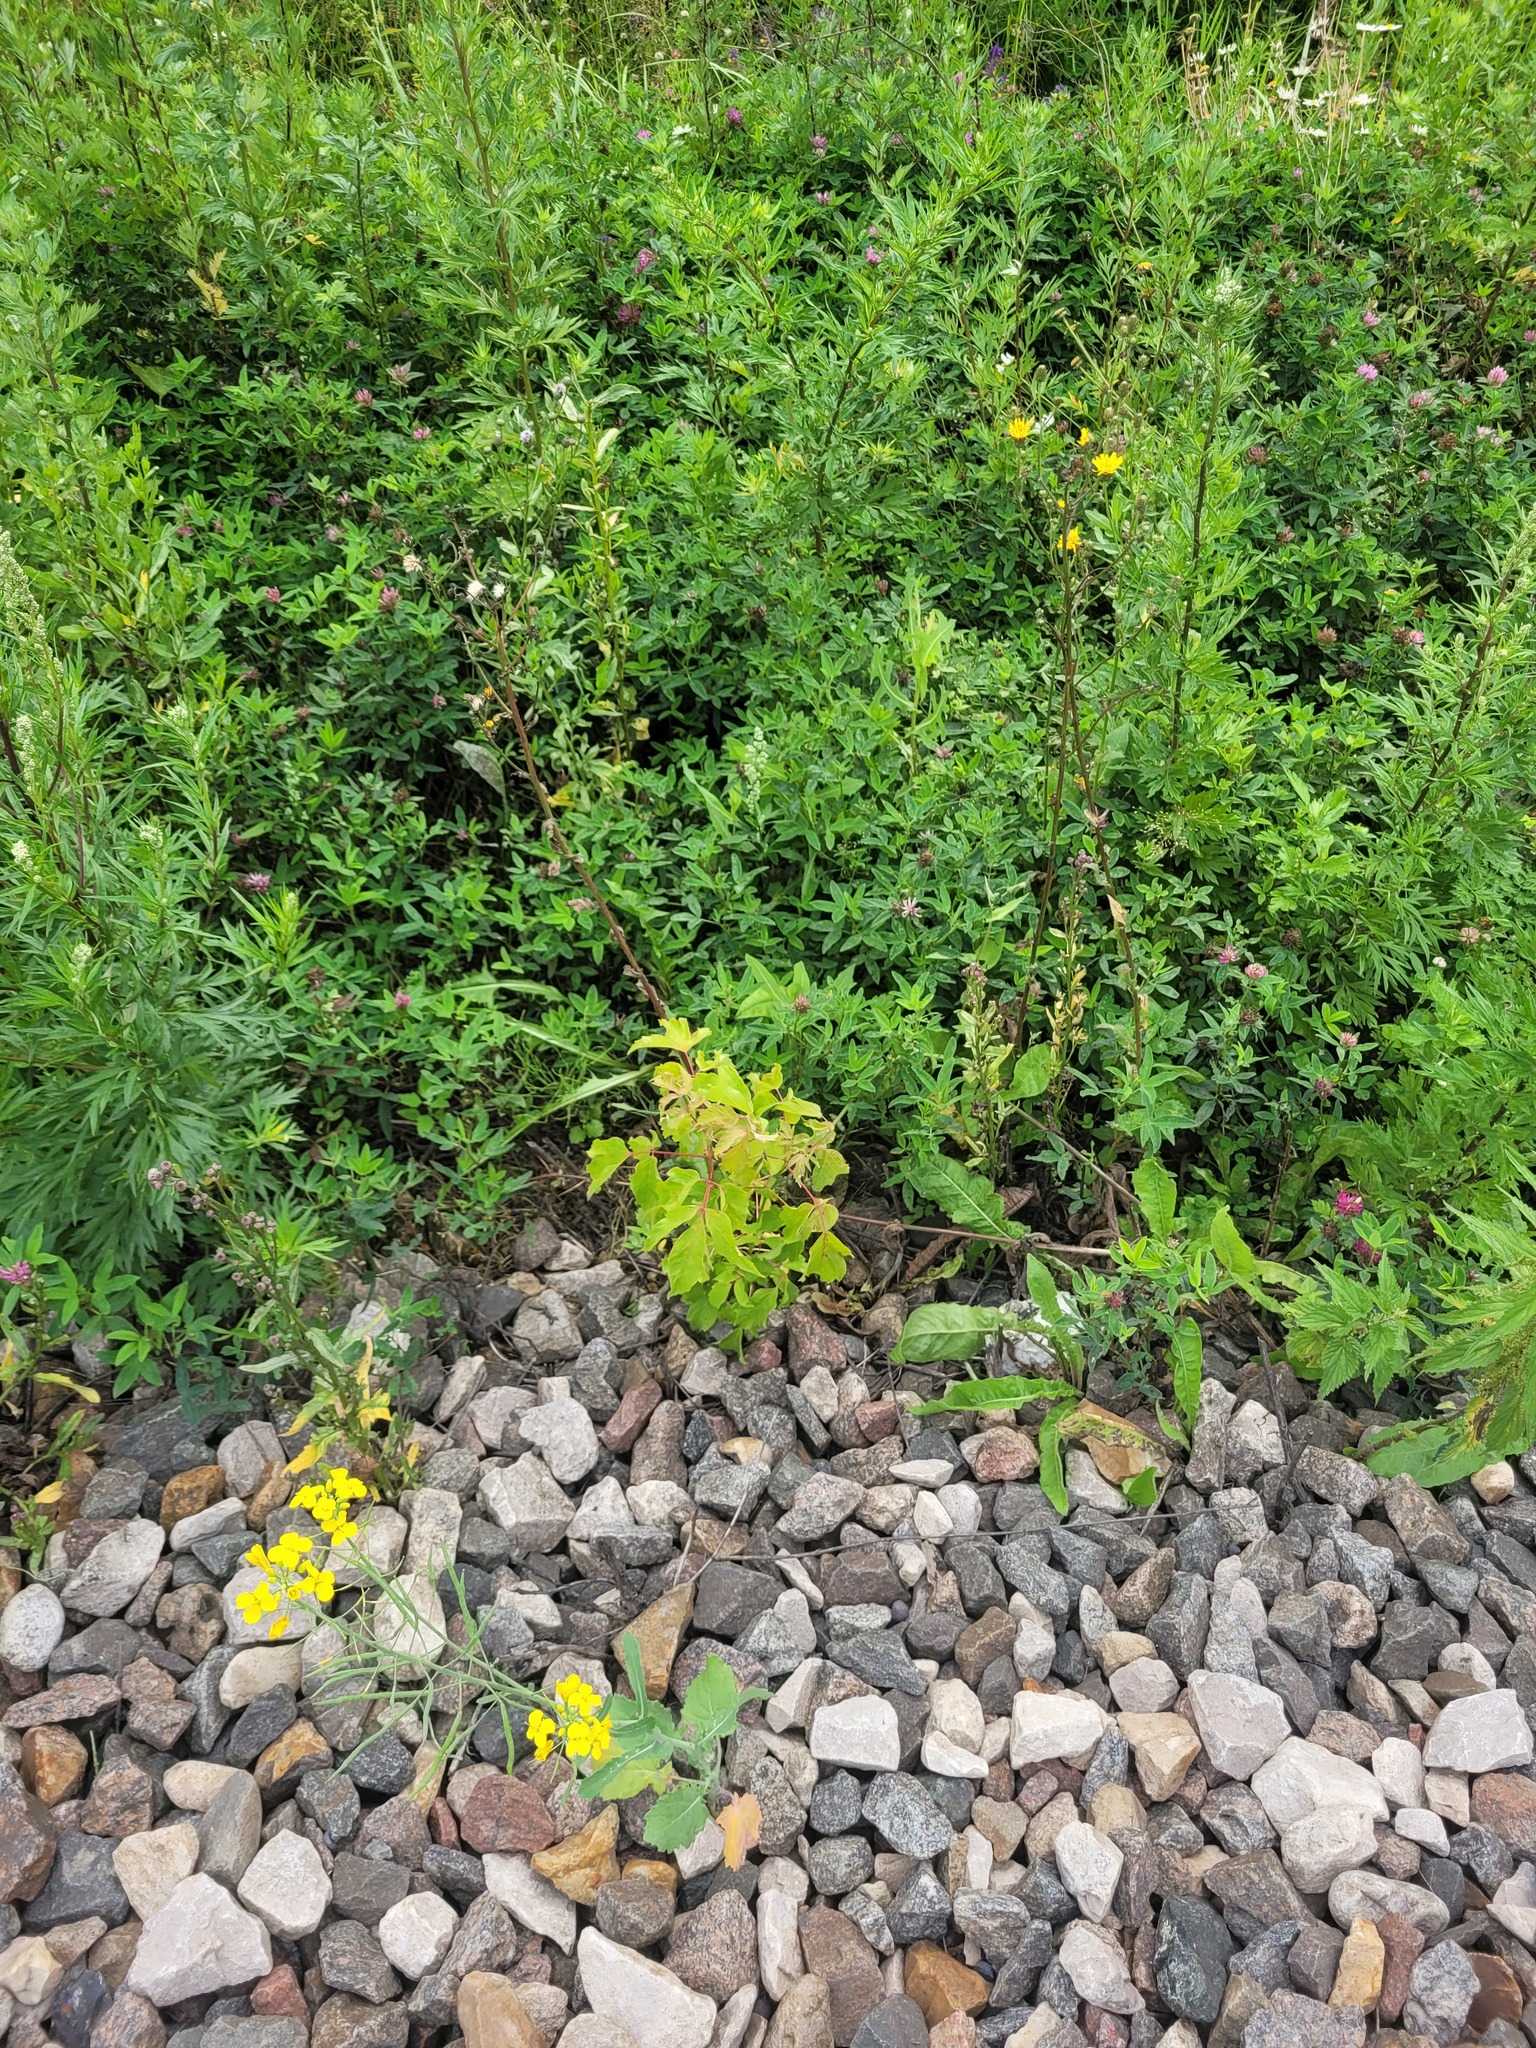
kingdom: Plantae
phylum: Tracheophyta
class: Magnoliopsida
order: Sapindales
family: Sapindaceae
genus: Acer
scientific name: Acer negundo
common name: Ashleaf maple
